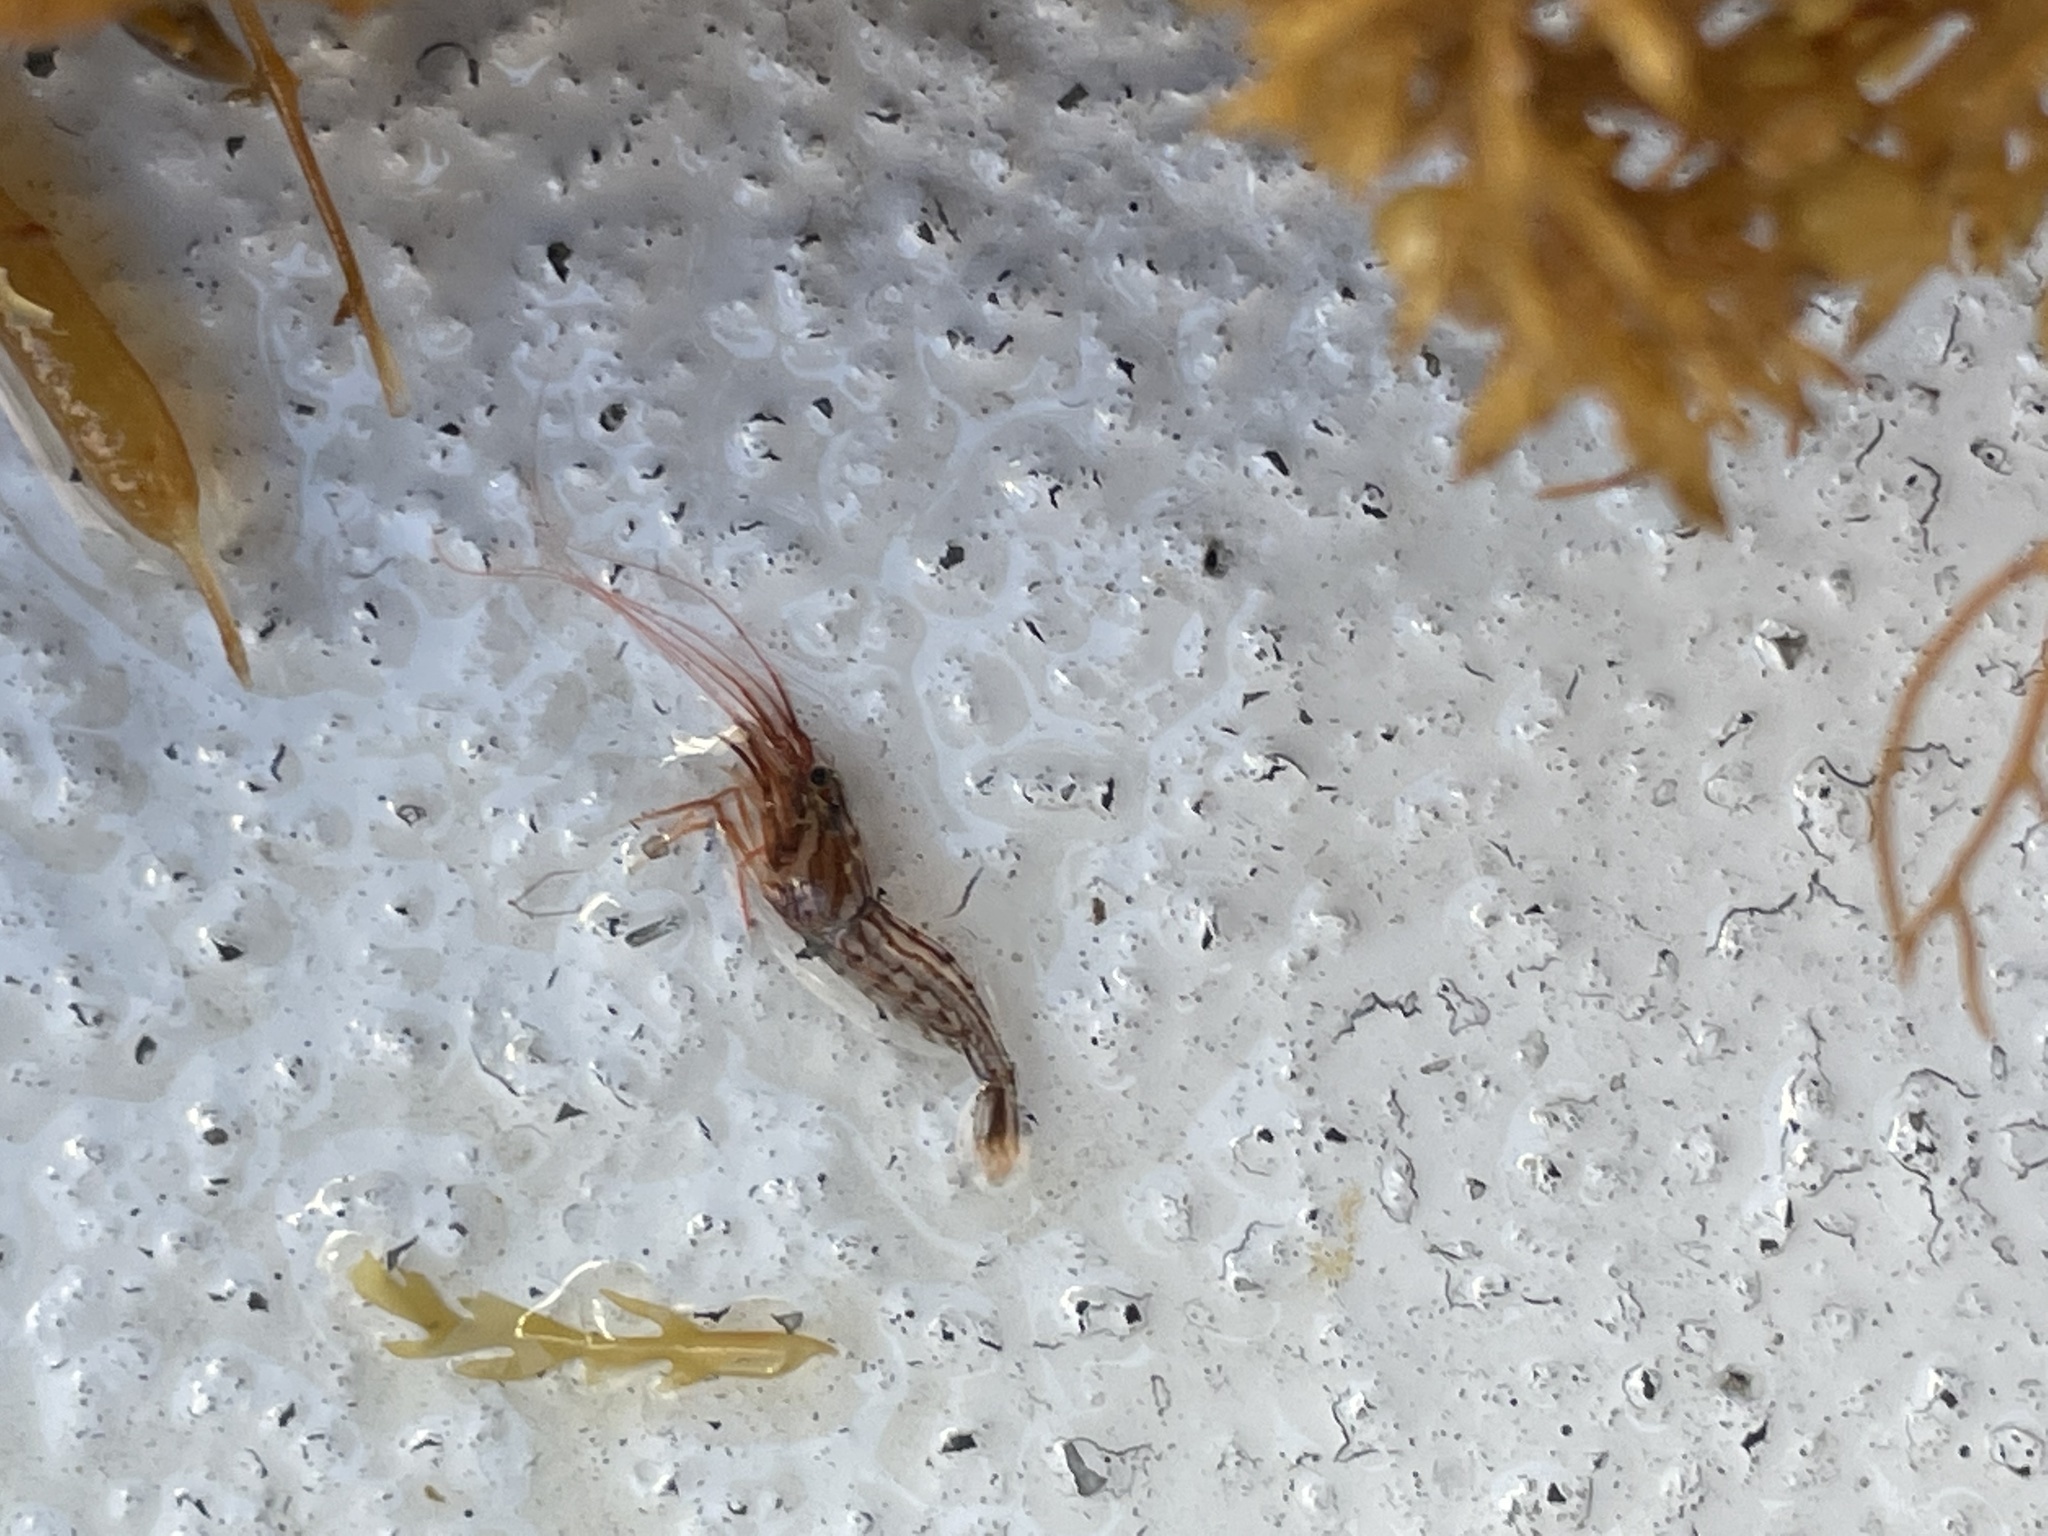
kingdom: Animalia
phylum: Arthropoda
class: Malacostraca
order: Decapoda
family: Lysmatidae
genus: Lysmata
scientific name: Lysmata californica
